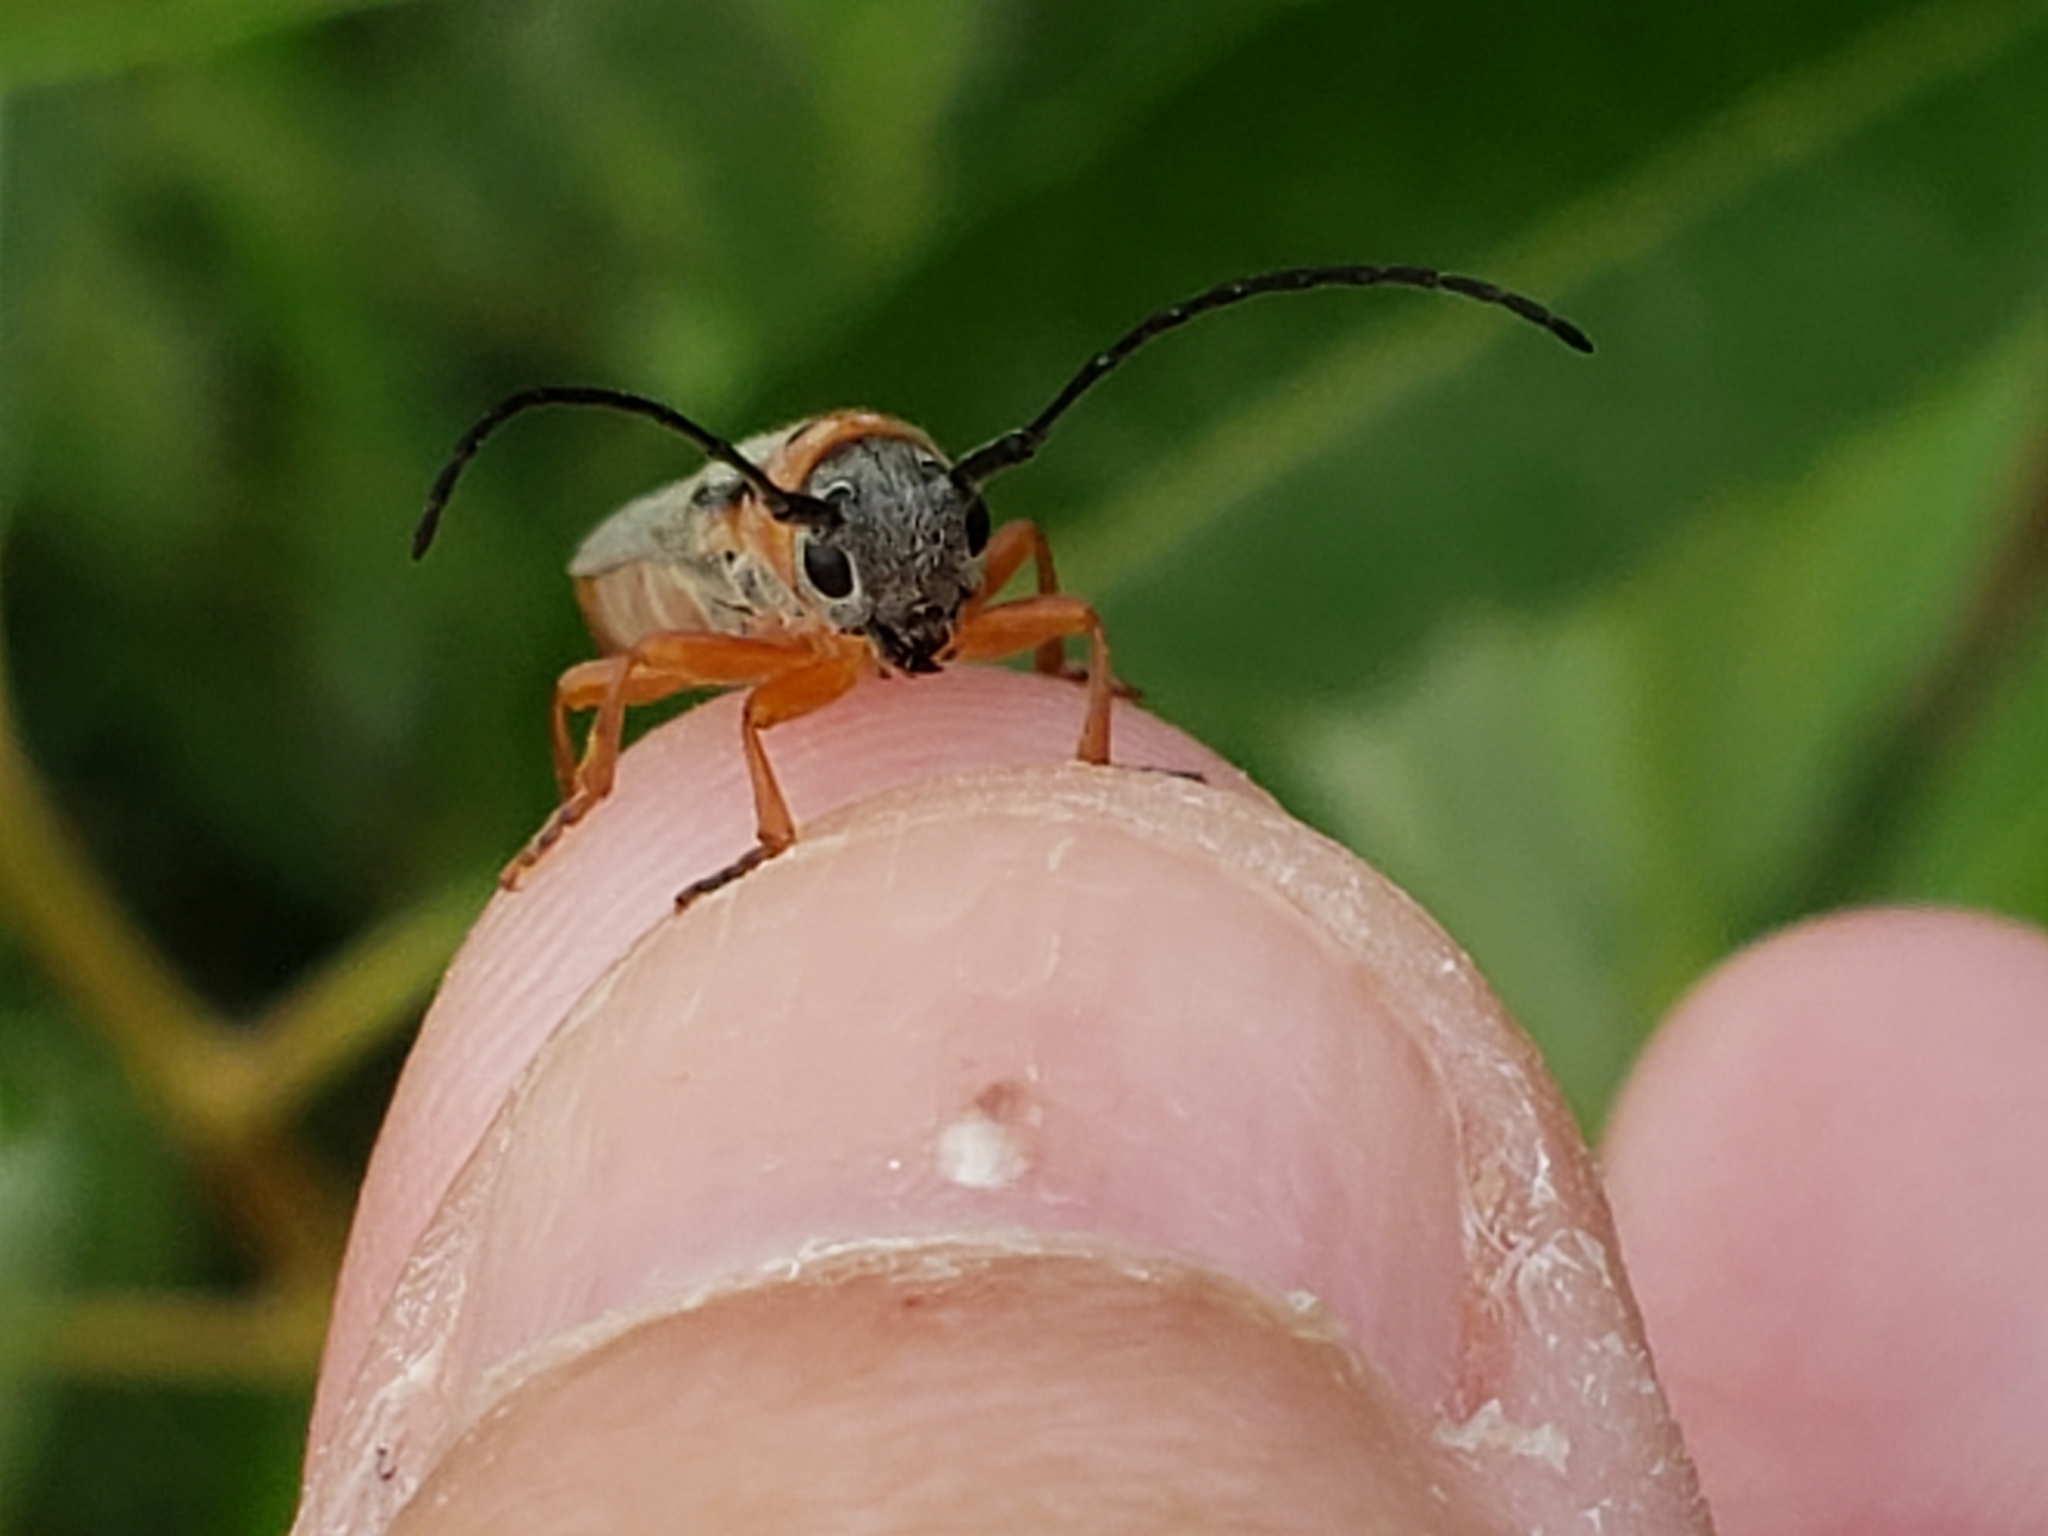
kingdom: Animalia
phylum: Arthropoda
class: Insecta
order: Coleoptera
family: Cerambycidae
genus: Oberea
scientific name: Oberea quadricallosa
